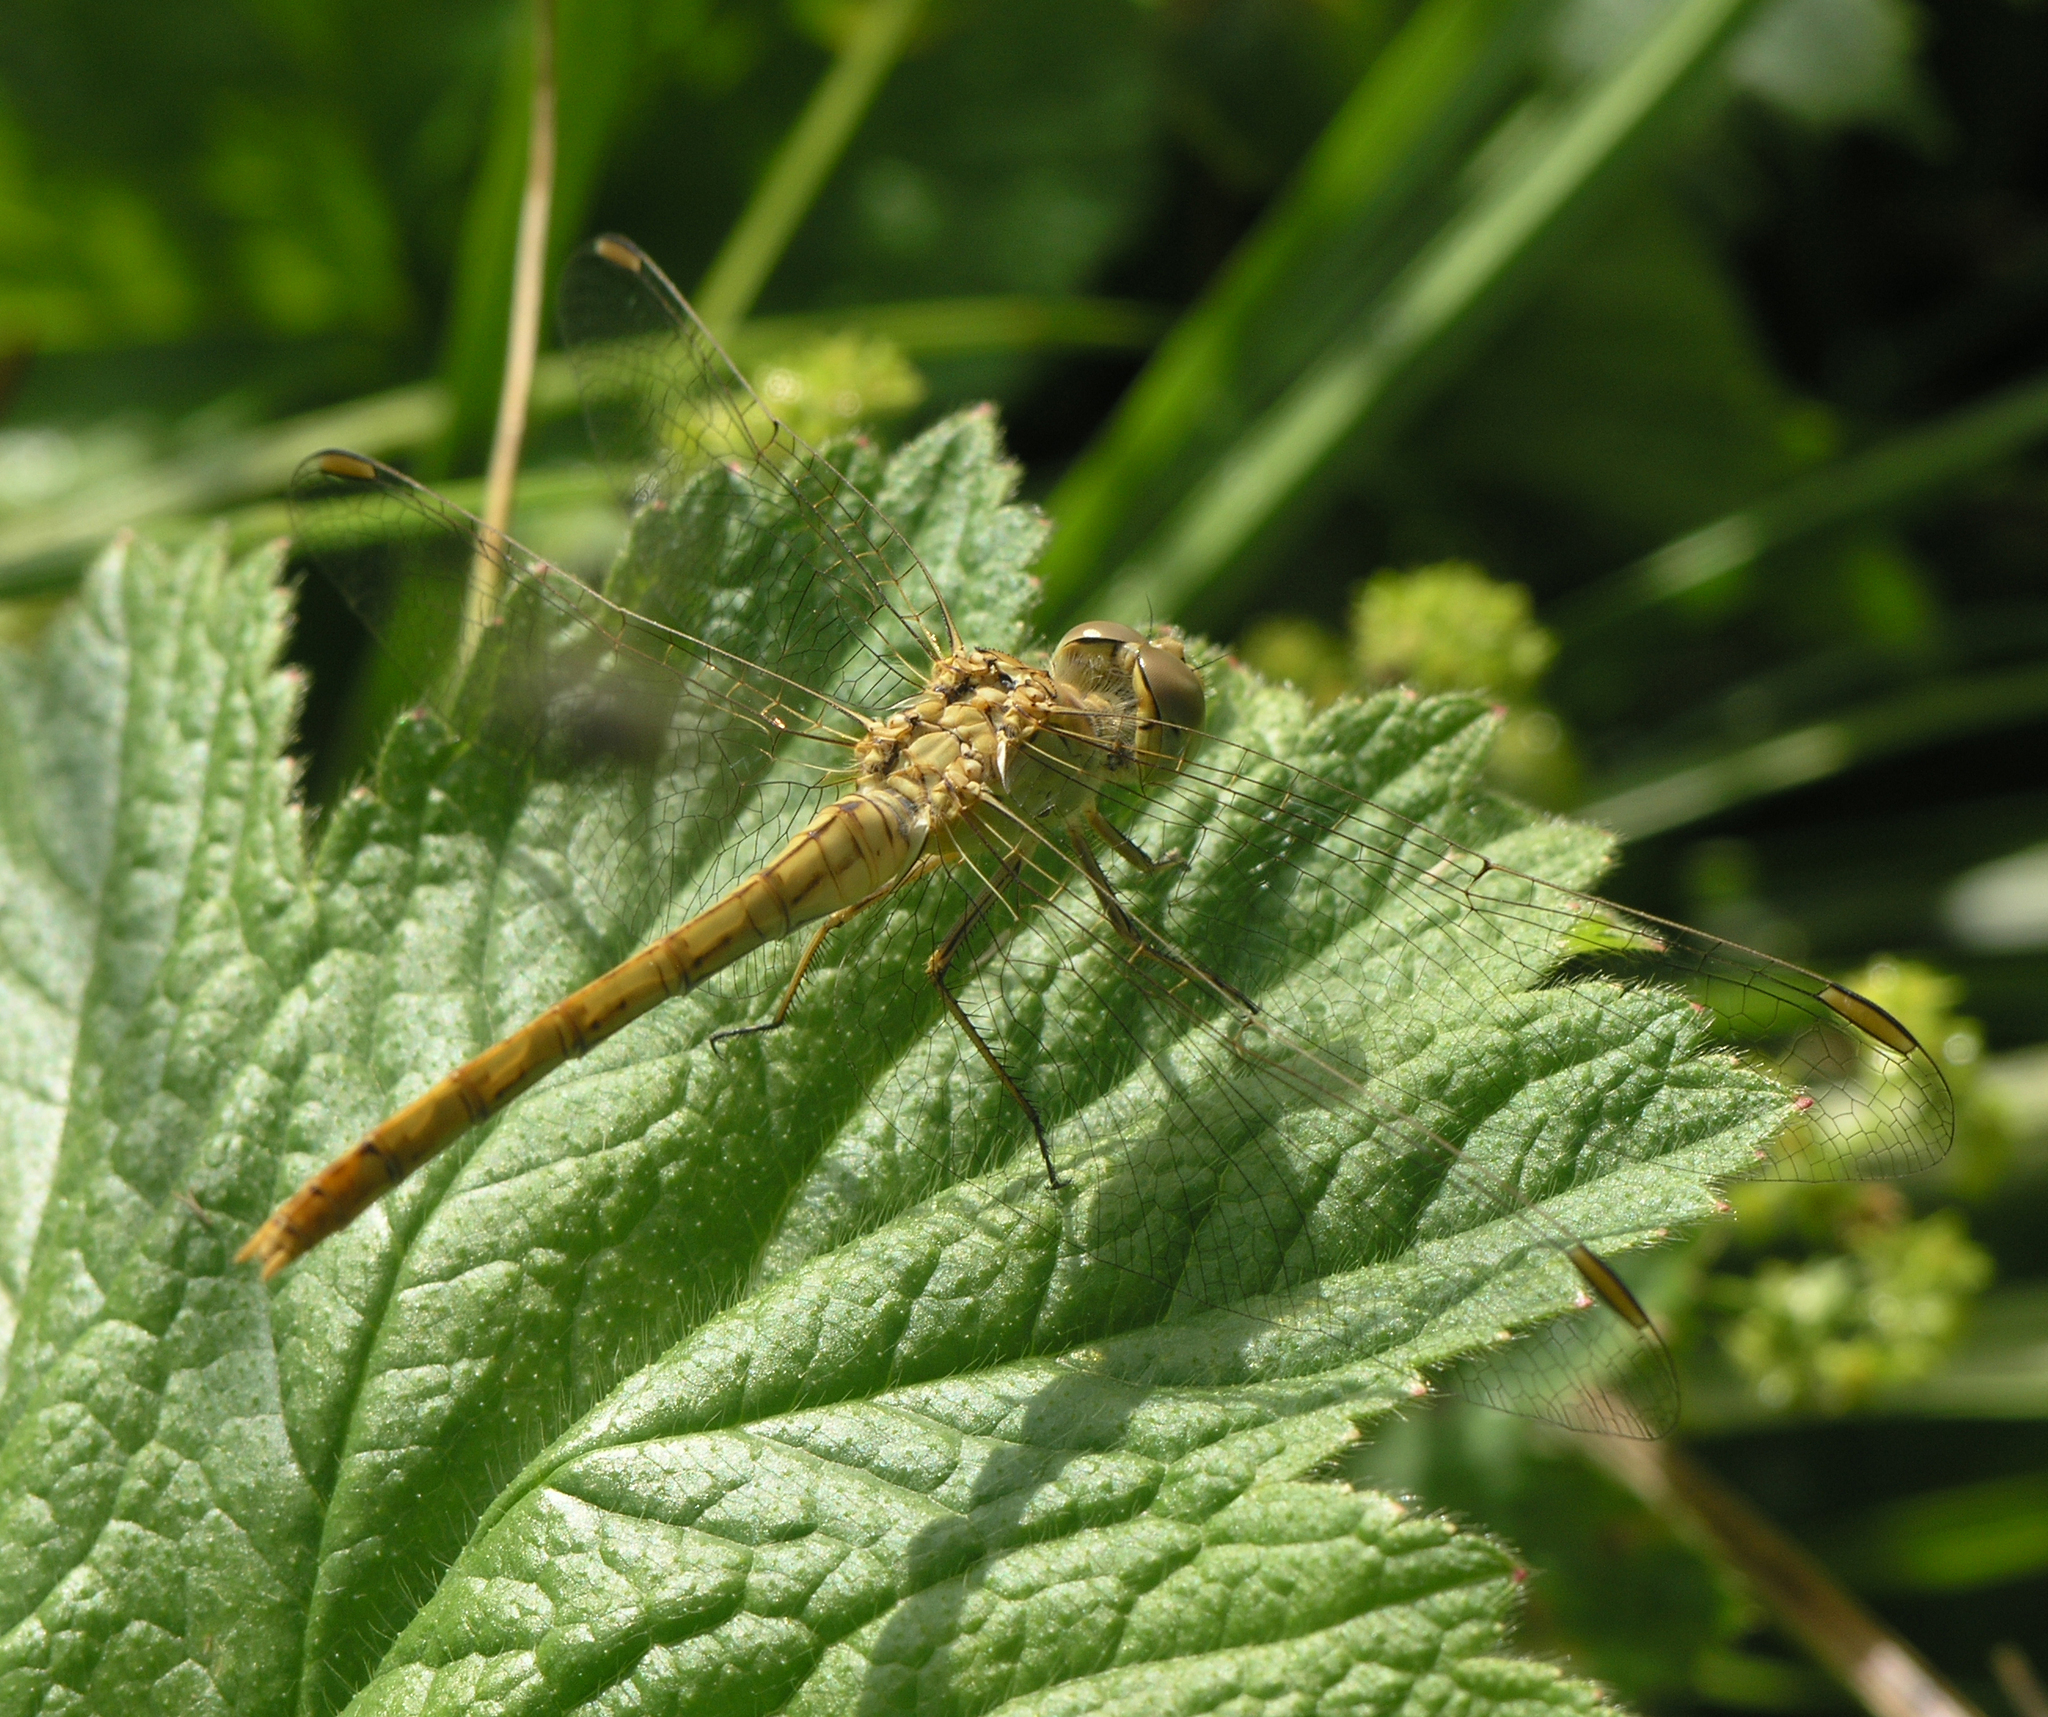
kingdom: Animalia
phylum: Arthropoda
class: Insecta
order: Odonata
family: Libellulidae
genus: Sympetrum
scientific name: Sympetrum meridionale
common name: Southern darter
